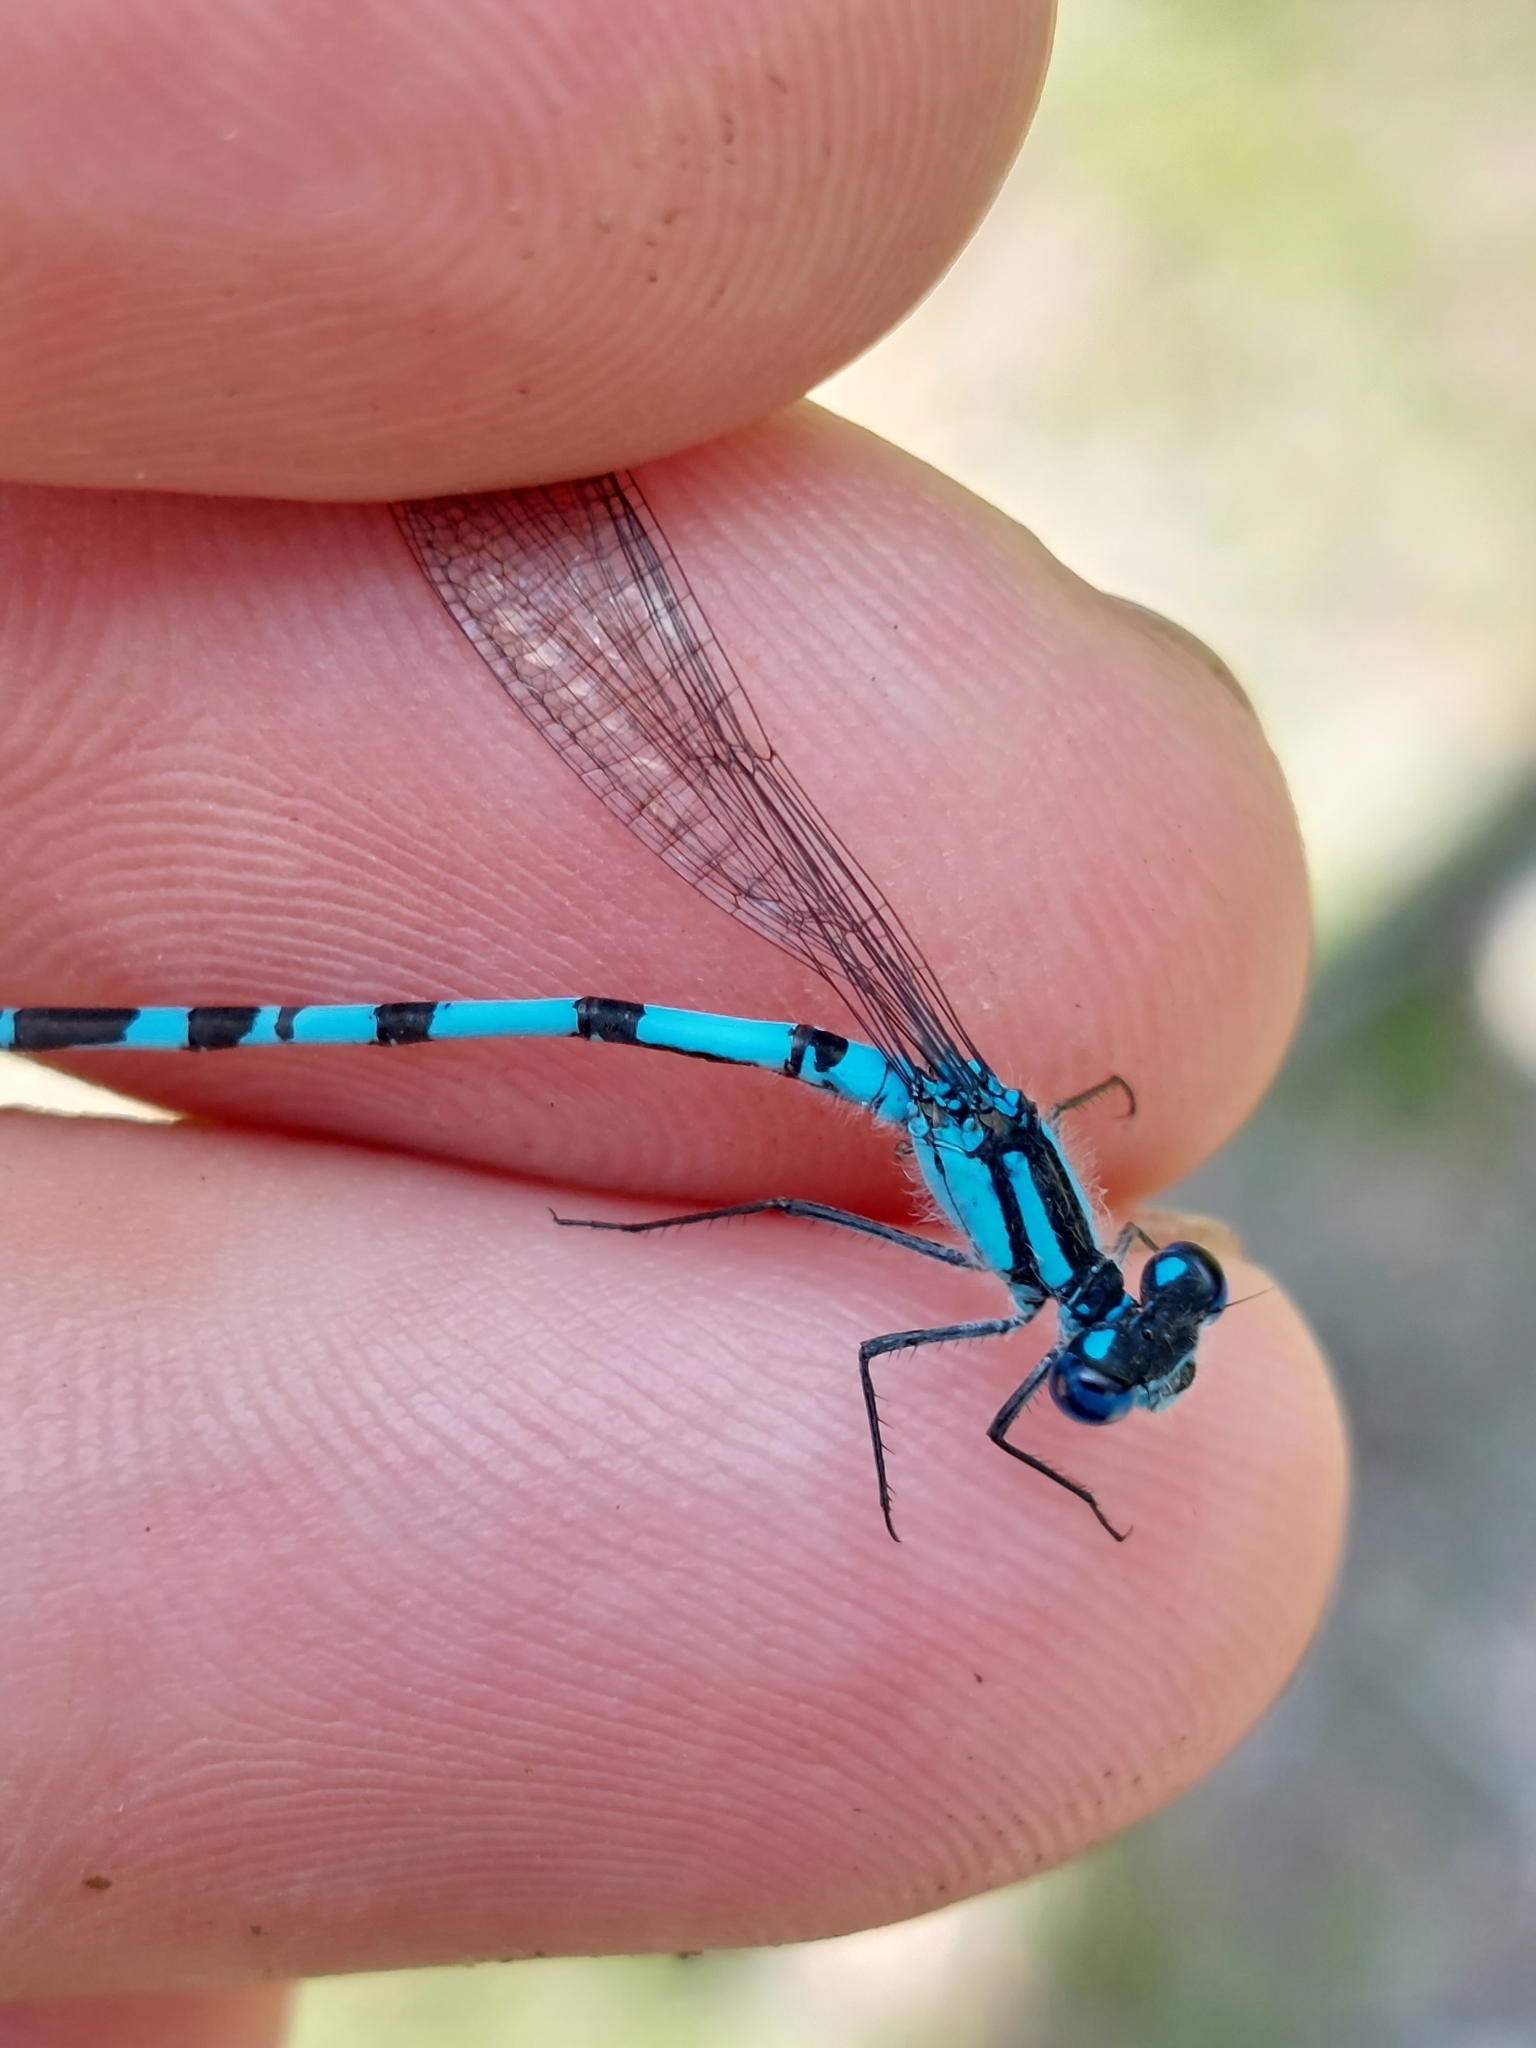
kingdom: Animalia
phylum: Arthropoda
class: Insecta
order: Odonata
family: Coenagrionidae
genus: Enallagma
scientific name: Enallagma cyathigerum
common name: Common blue damselfly
